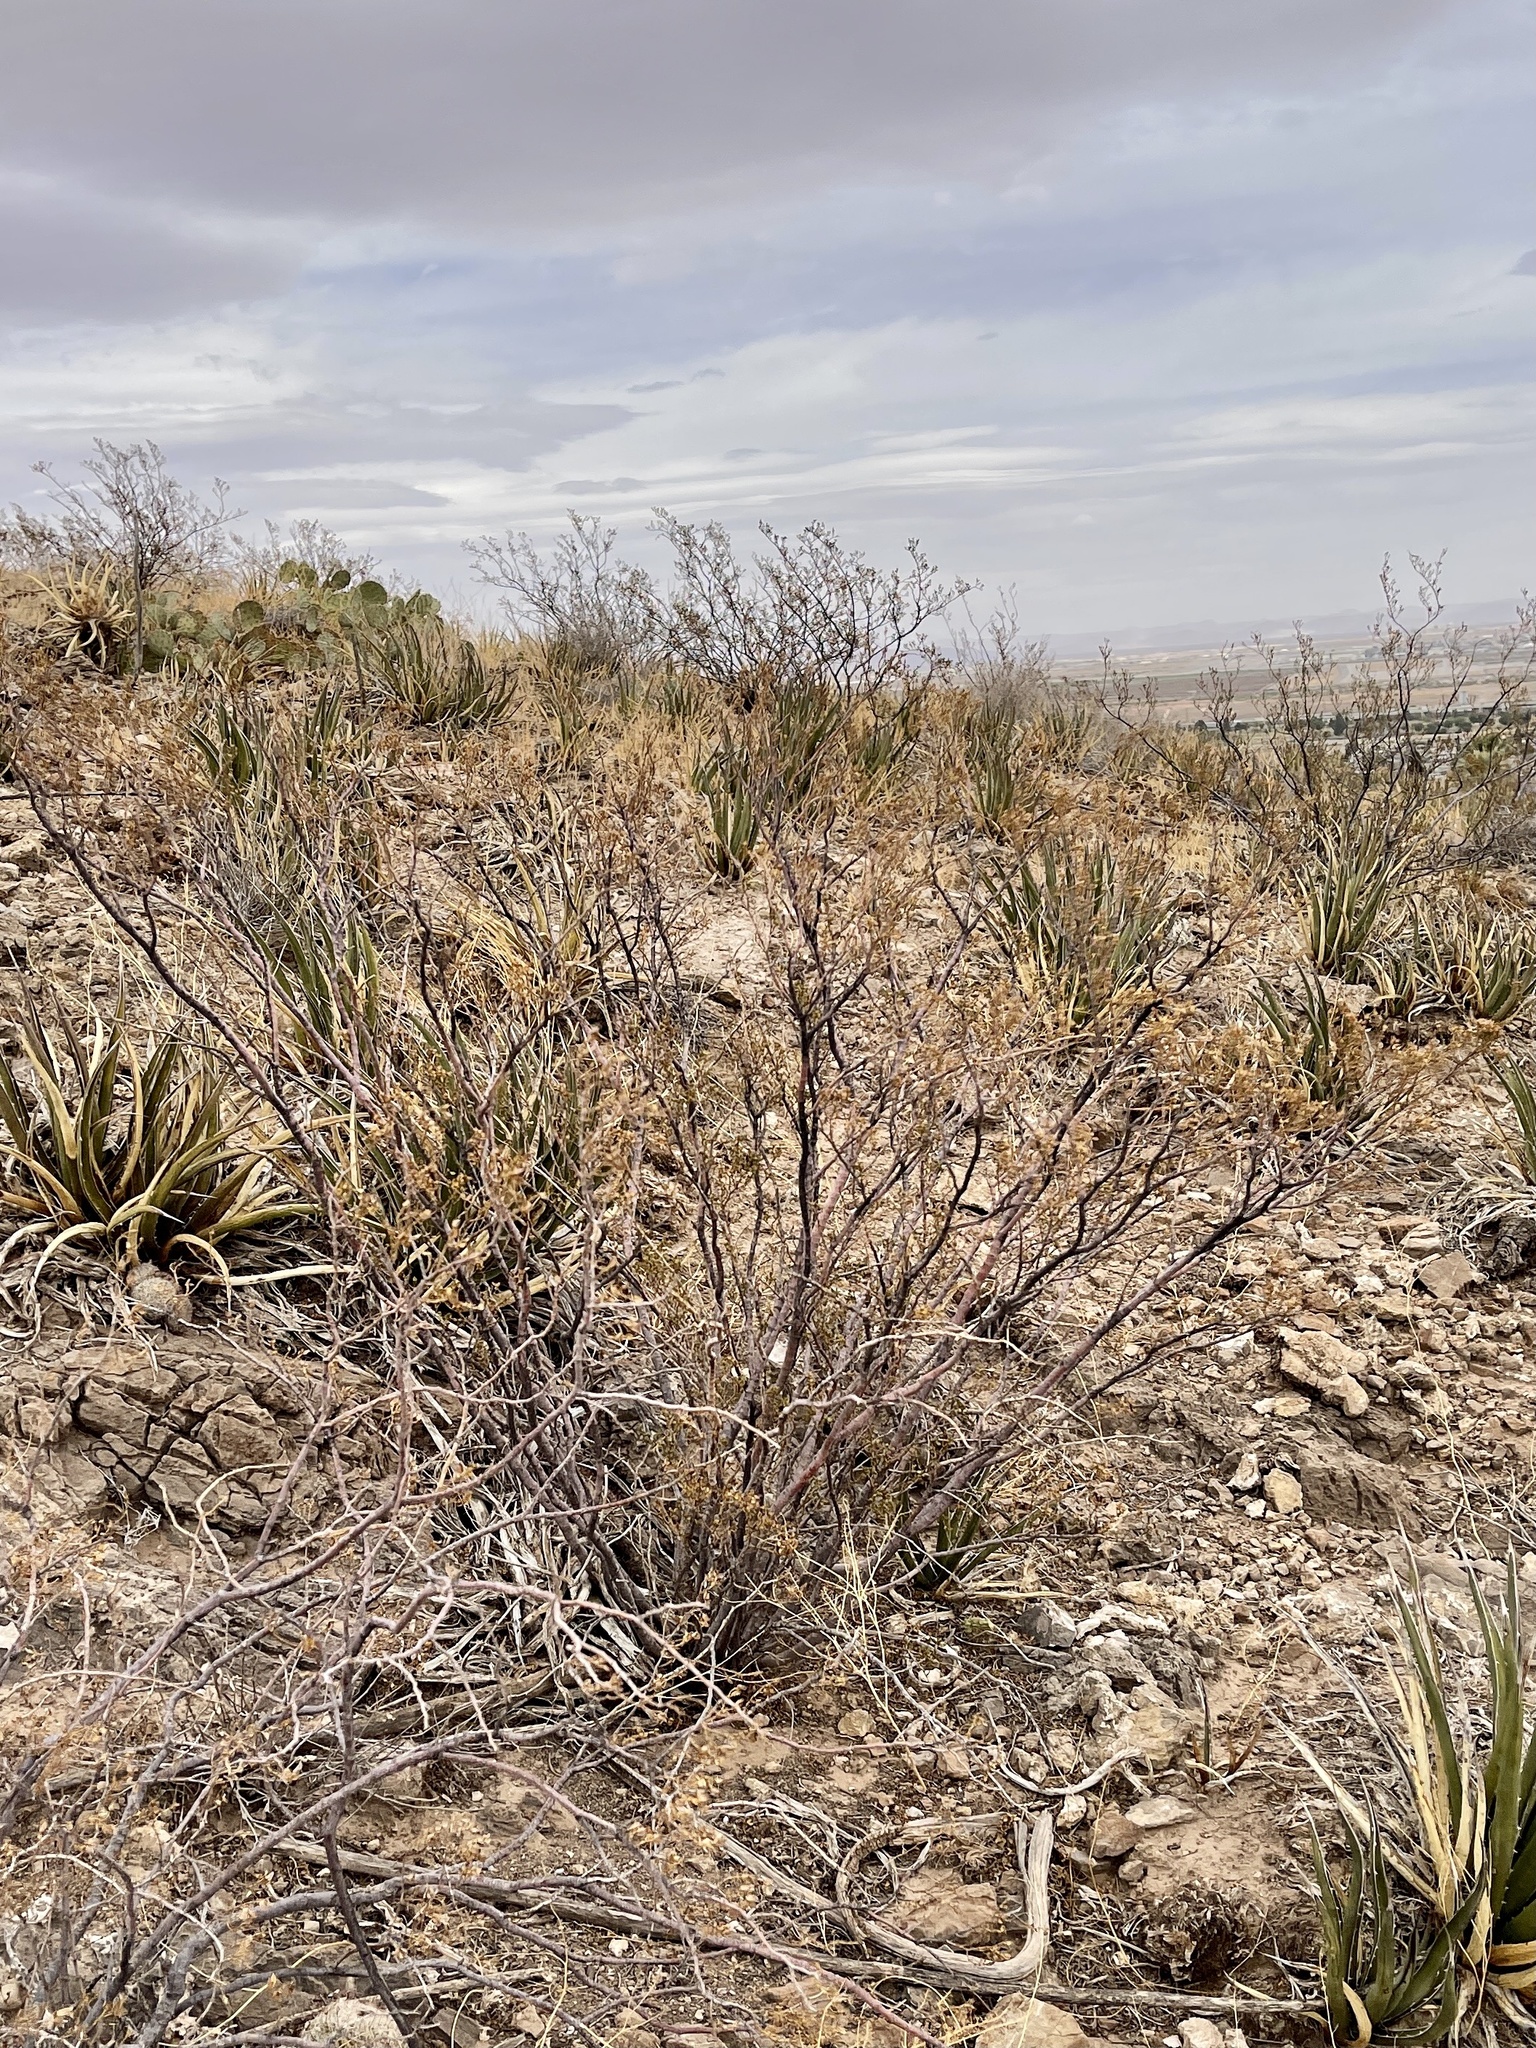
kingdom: Plantae
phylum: Tracheophyta
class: Magnoliopsida
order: Zygophyllales
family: Zygophyllaceae
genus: Larrea
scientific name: Larrea tridentata
